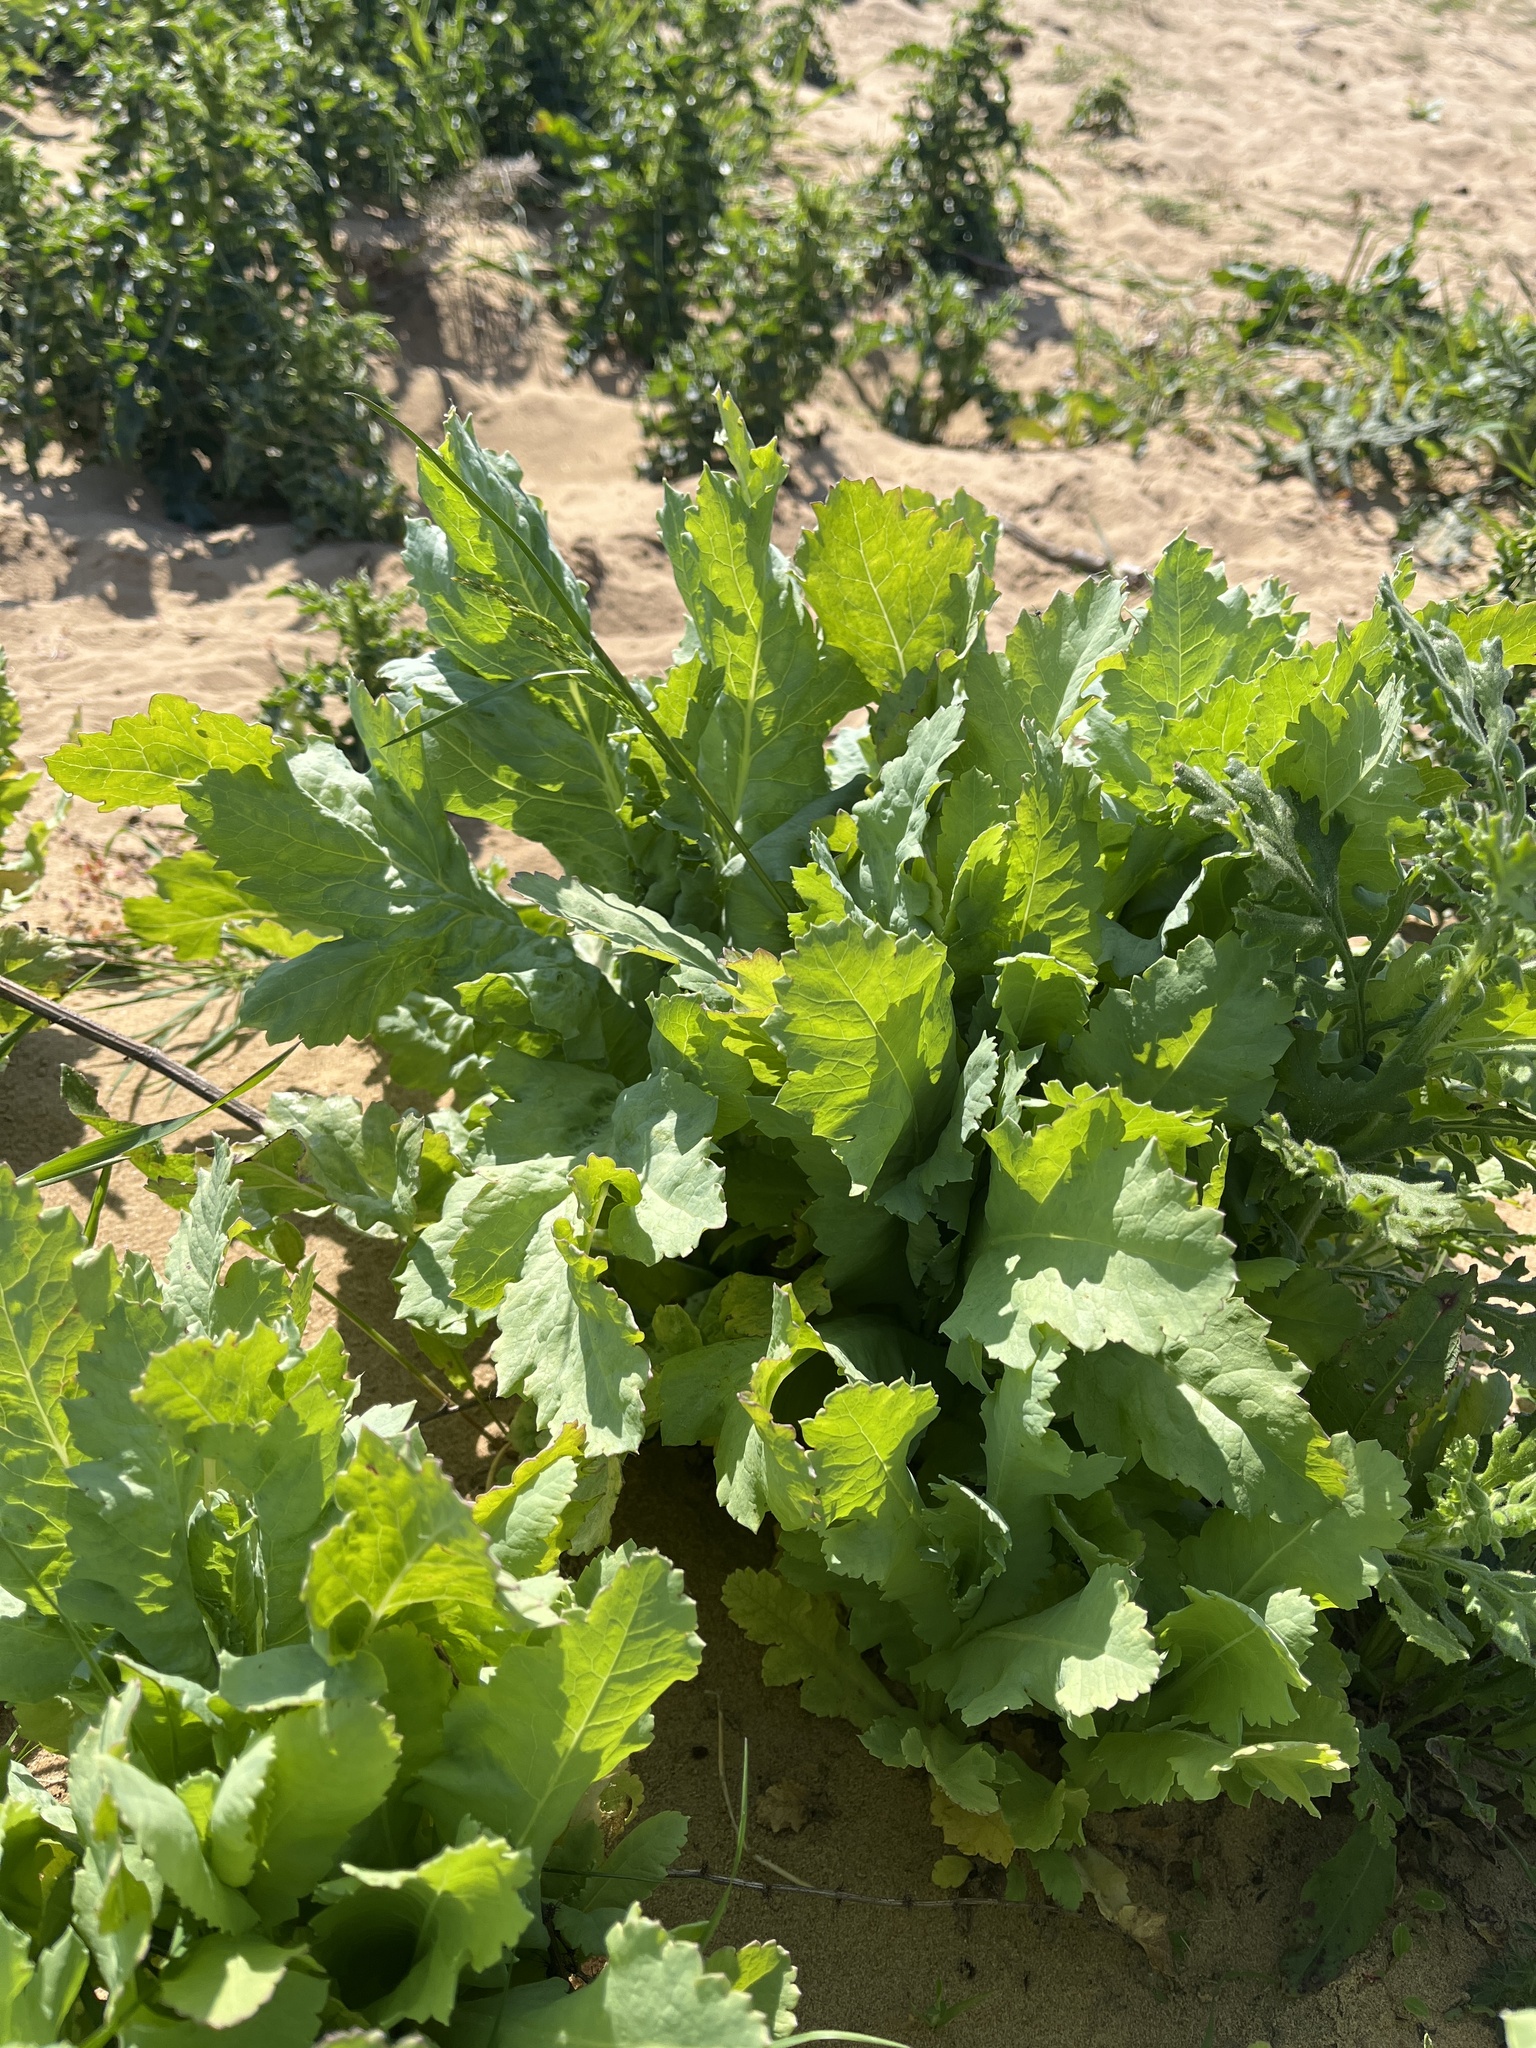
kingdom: Plantae
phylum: Tracheophyta
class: Magnoliopsida
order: Ranunculales
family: Papaveraceae
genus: Papaver
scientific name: Papaver somniferum
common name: Opium poppy
